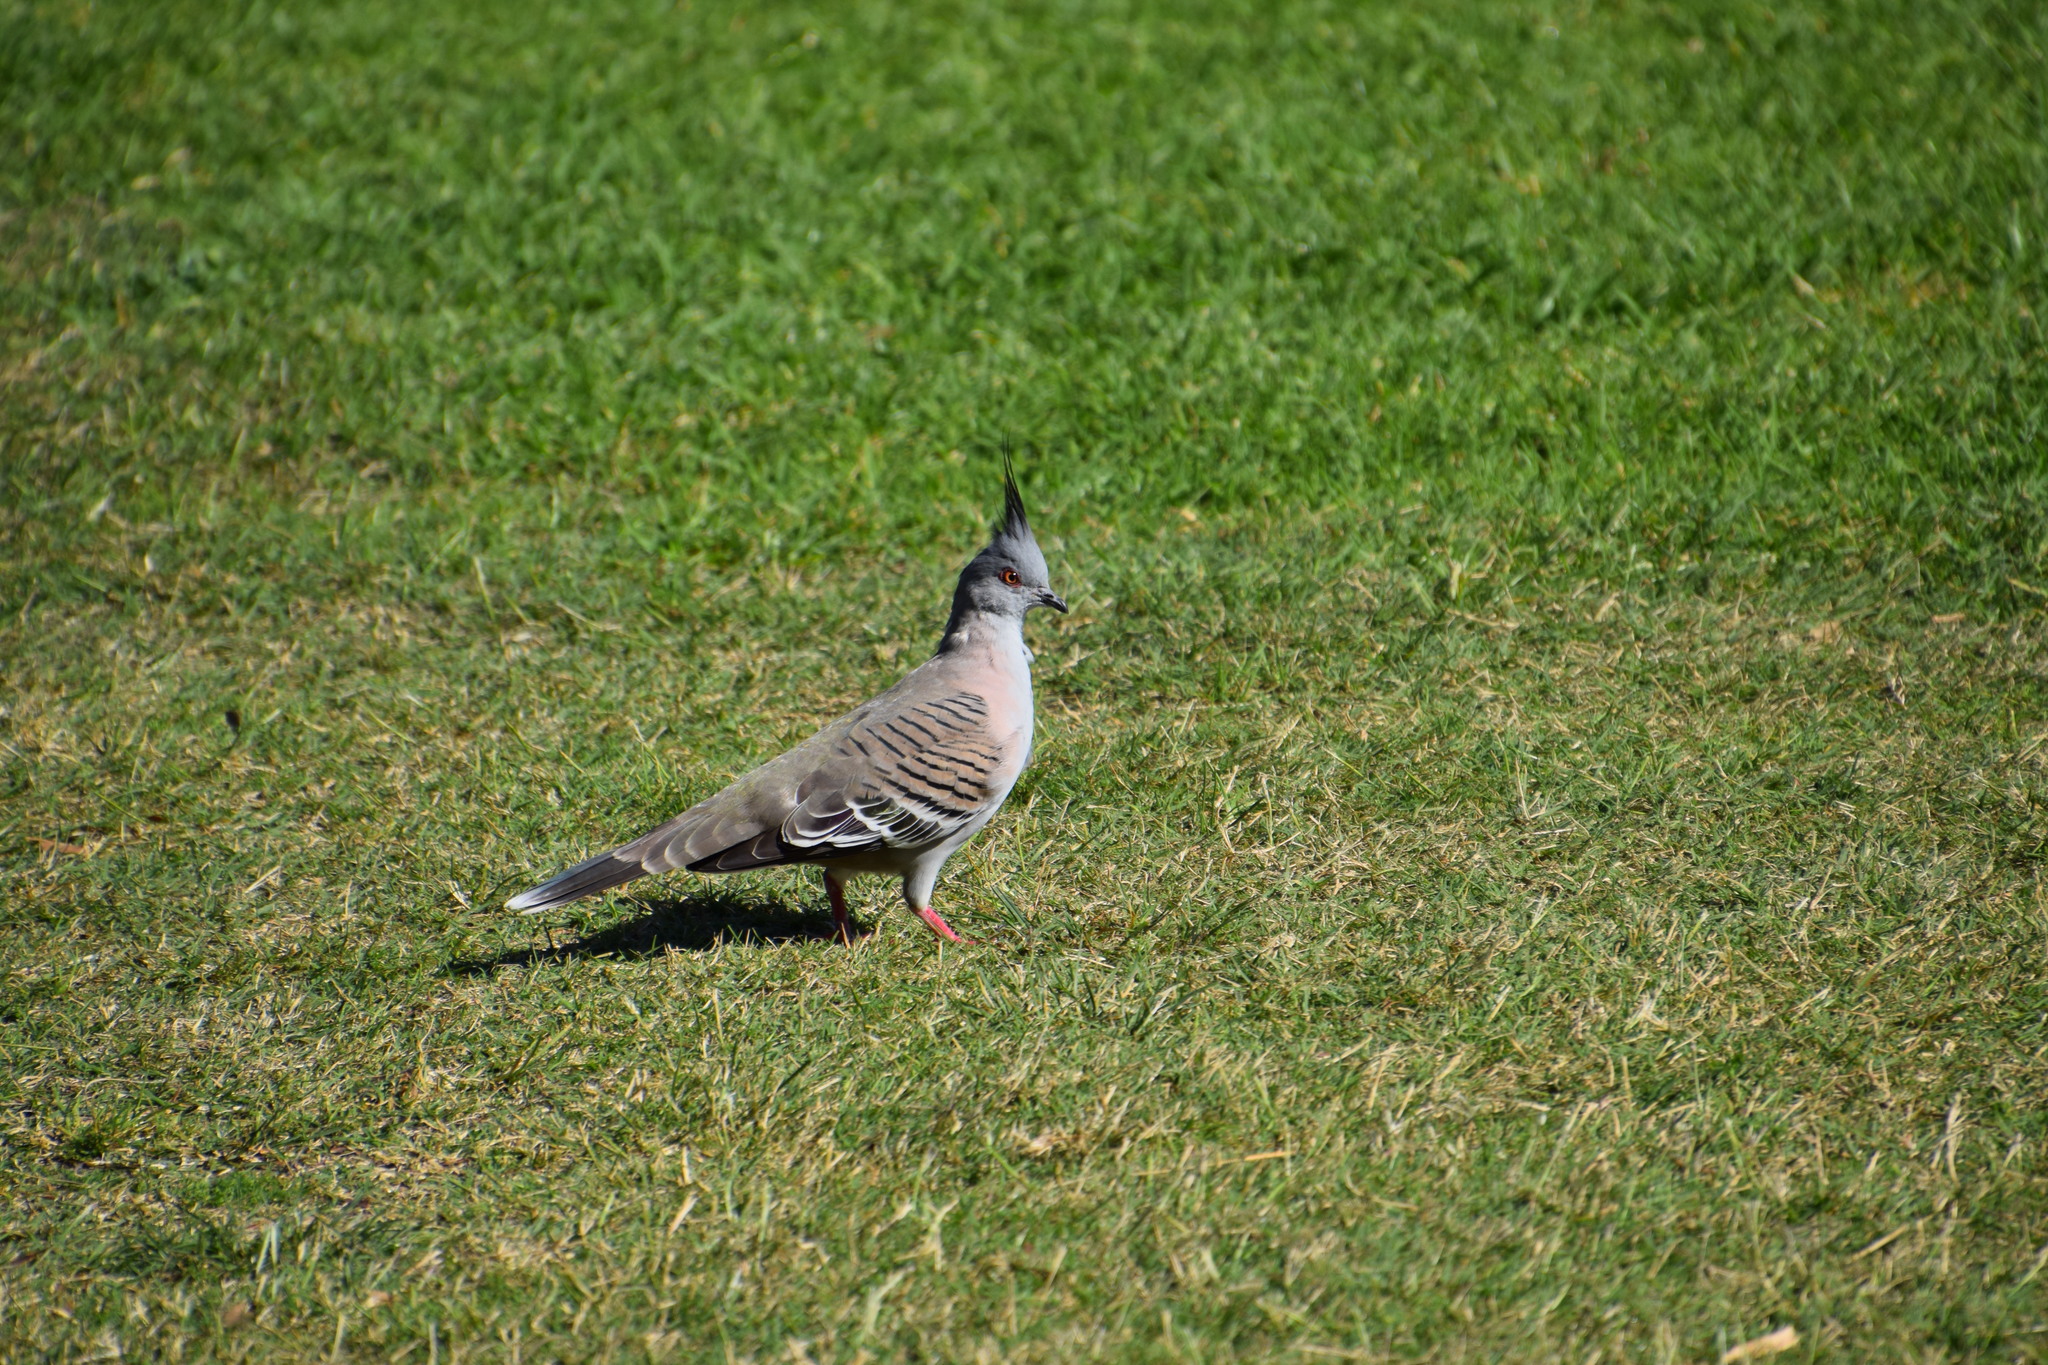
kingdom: Animalia
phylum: Chordata
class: Aves
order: Columbiformes
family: Columbidae
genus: Ocyphaps
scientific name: Ocyphaps lophotes
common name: Crested pigeon
